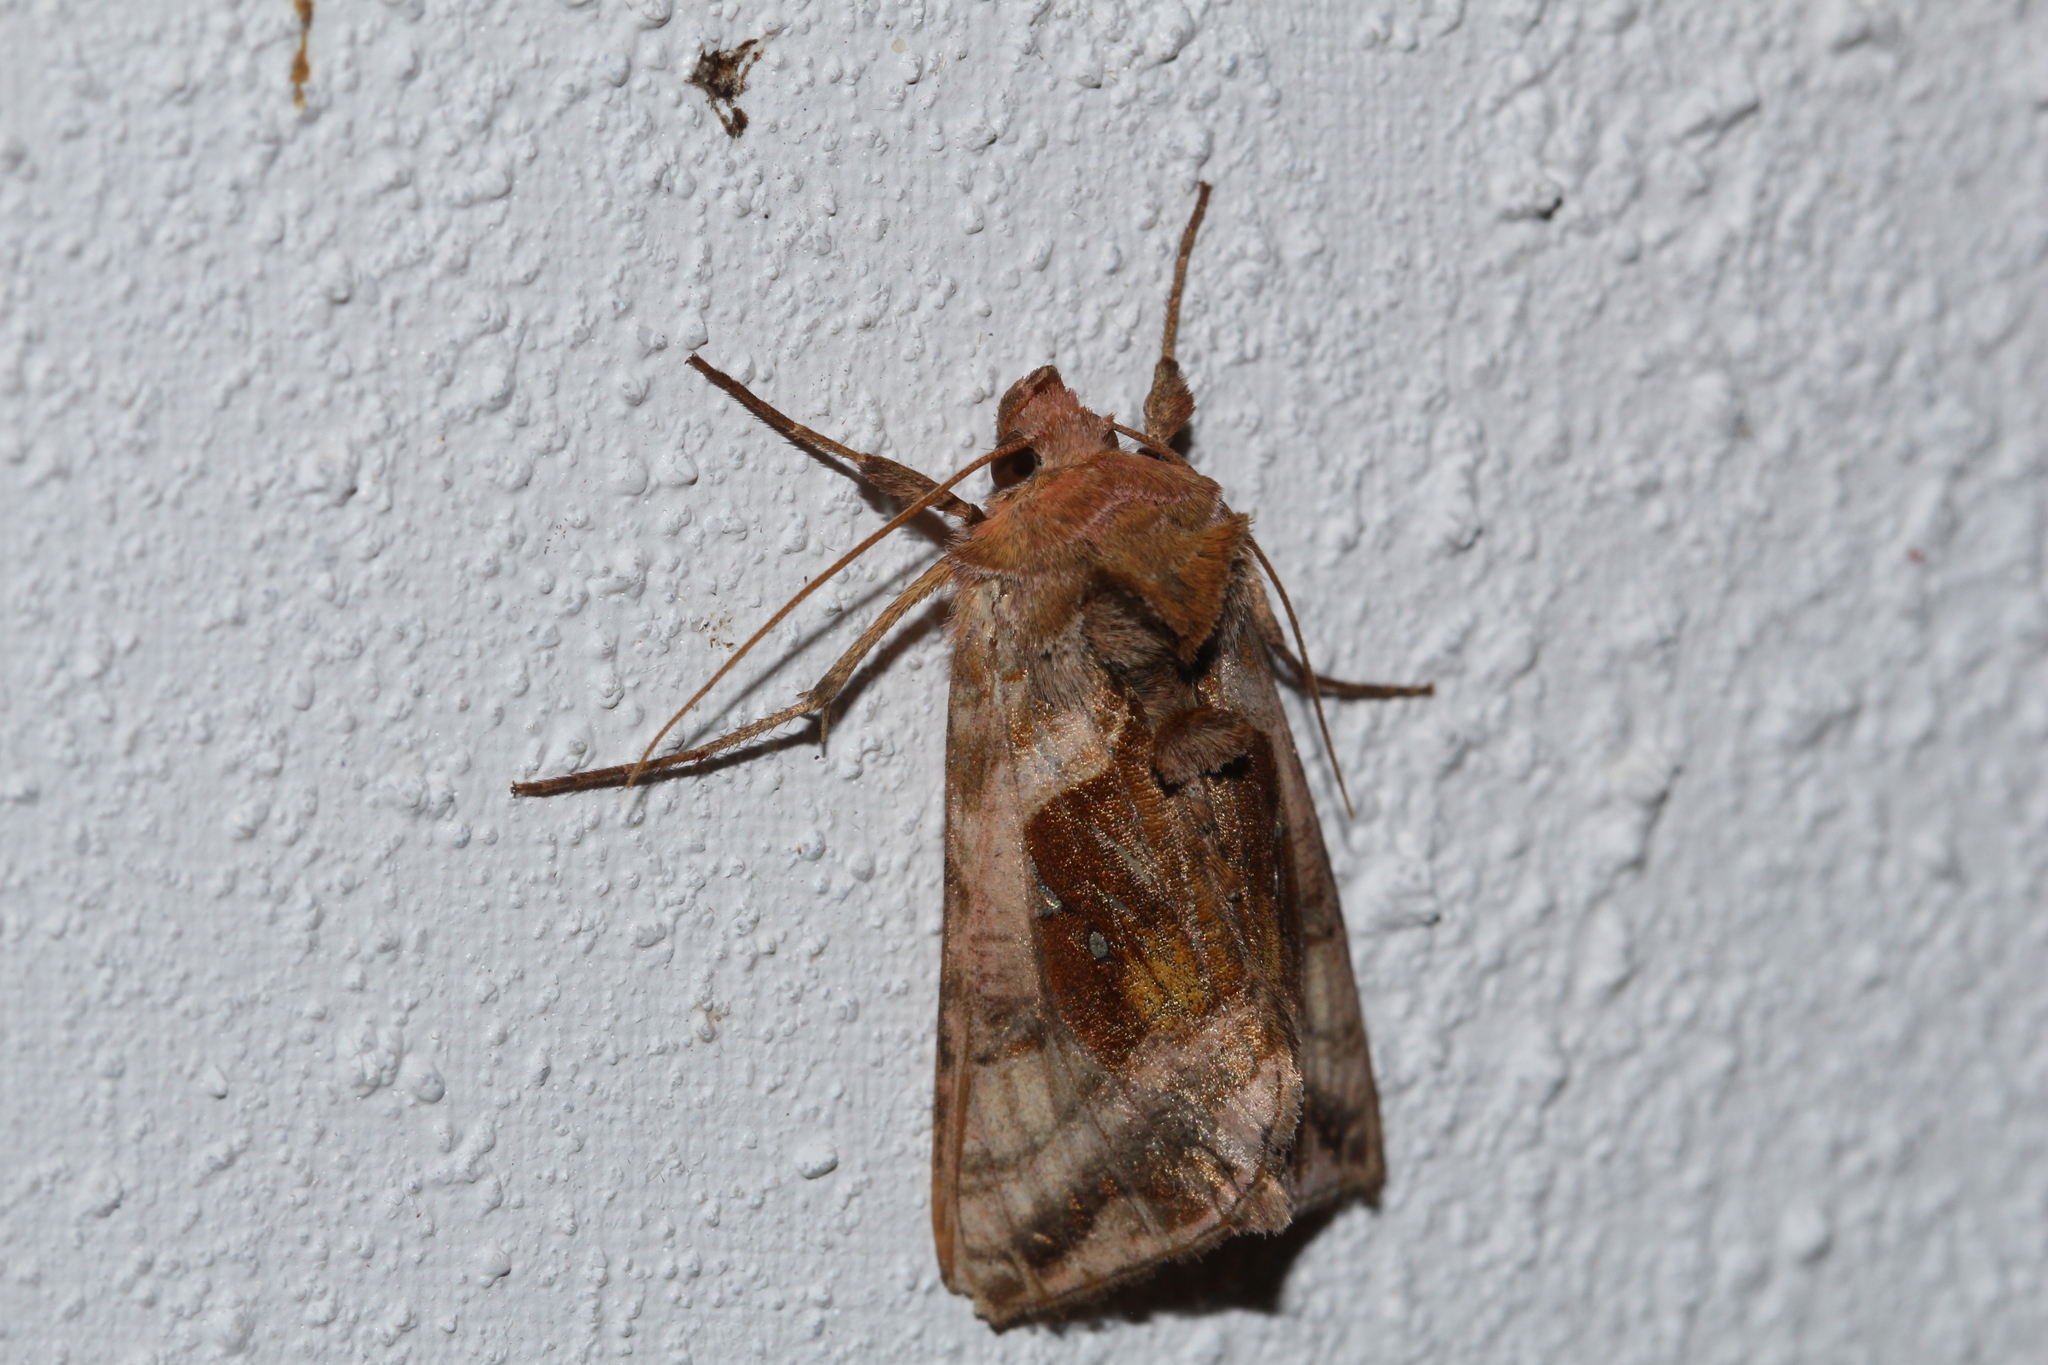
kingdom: Animalia
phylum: Arthropoda
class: Insecta
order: Lepidoptera
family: Noctuidae
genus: Autographa
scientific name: Autographa jota
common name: Plain golden y
